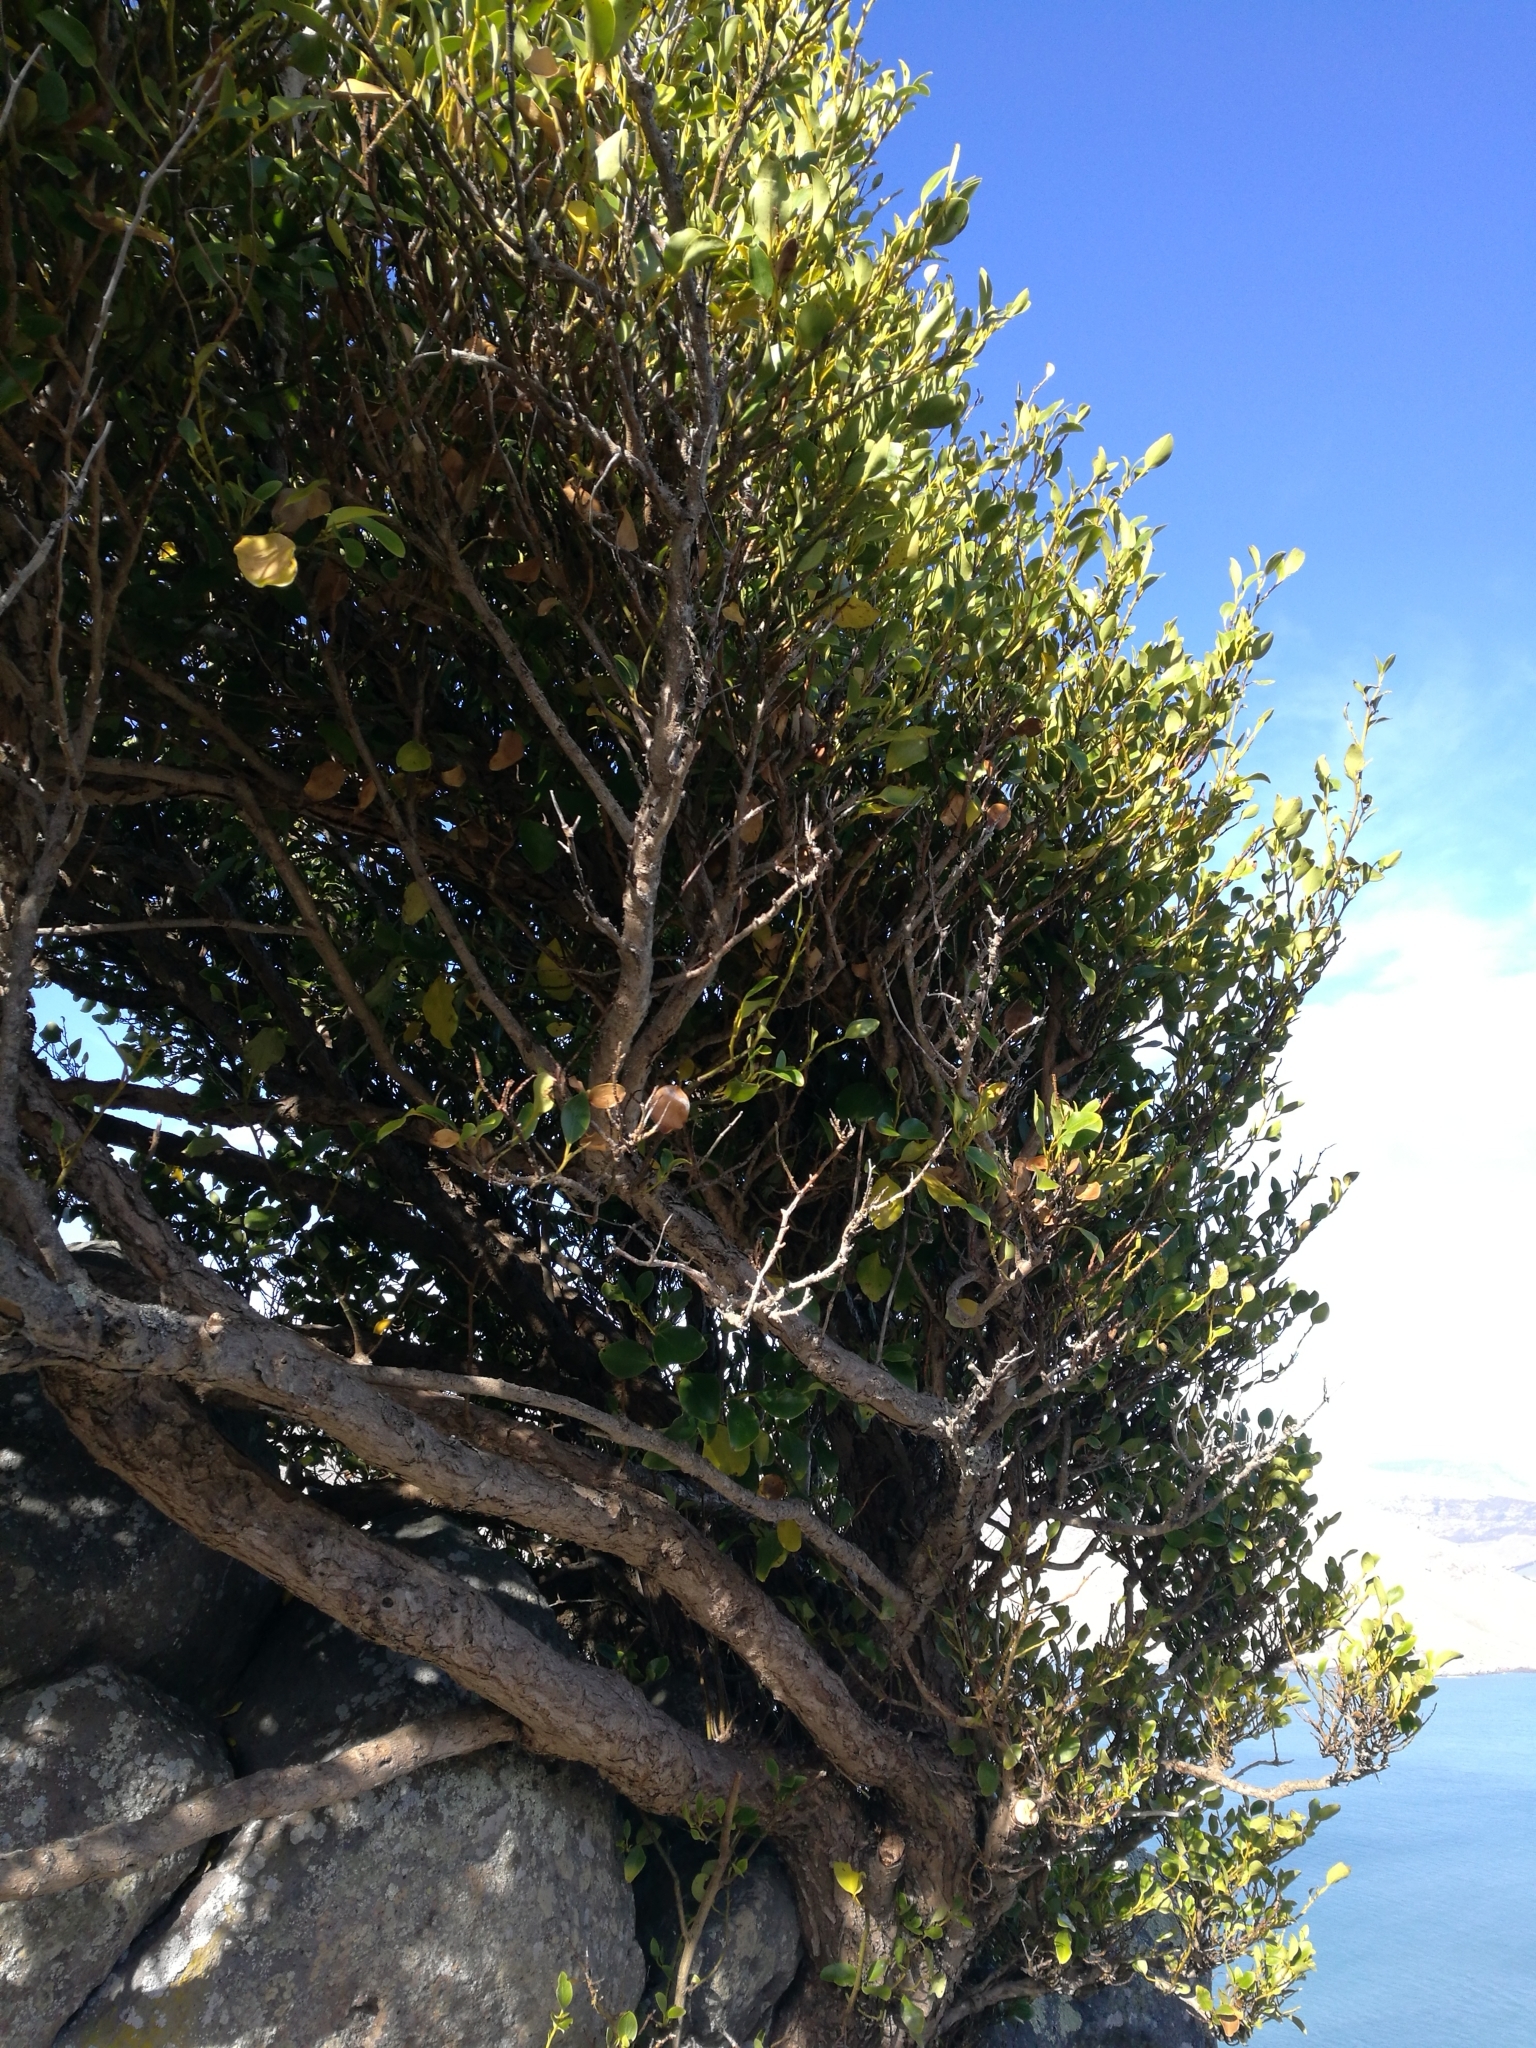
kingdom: Plantae
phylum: Tracheophyta
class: Magnoliopsida
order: Apiales
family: Griseliniaceae
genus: Griselinia
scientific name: Griselinia littoralis
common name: New zealand broadleaf
